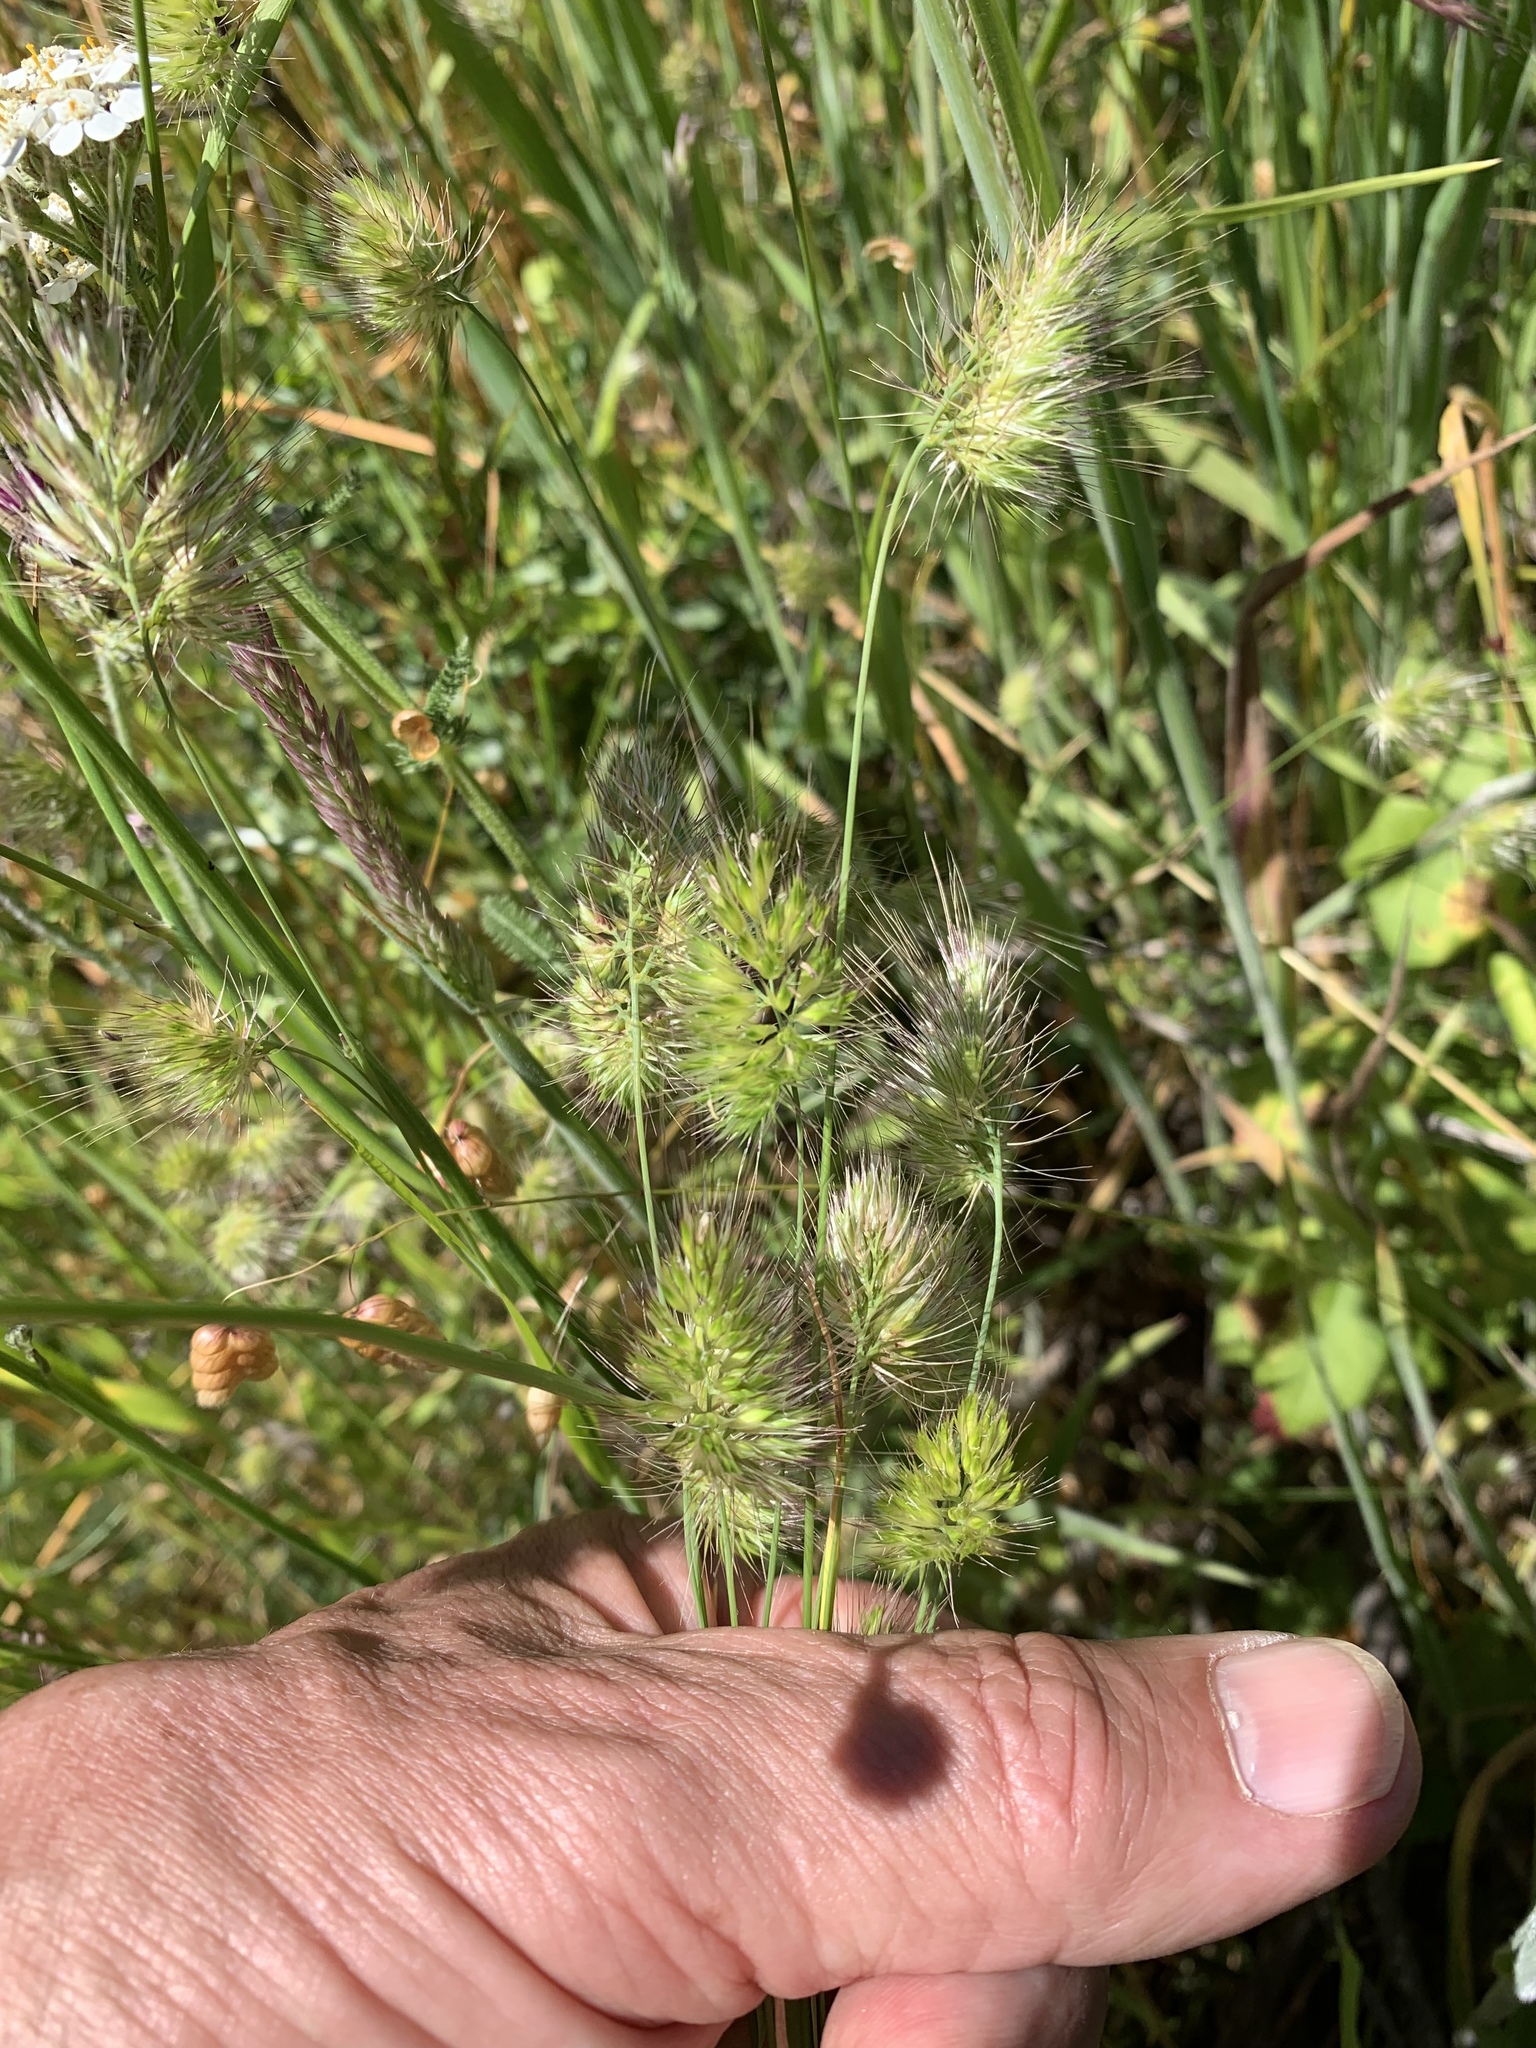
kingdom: Plantae
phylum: Tracheophyta
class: Liliopsida
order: Poales
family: Poaceae
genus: Cynosurus
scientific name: Cynosurus echinatus
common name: Rough dog's-tail
